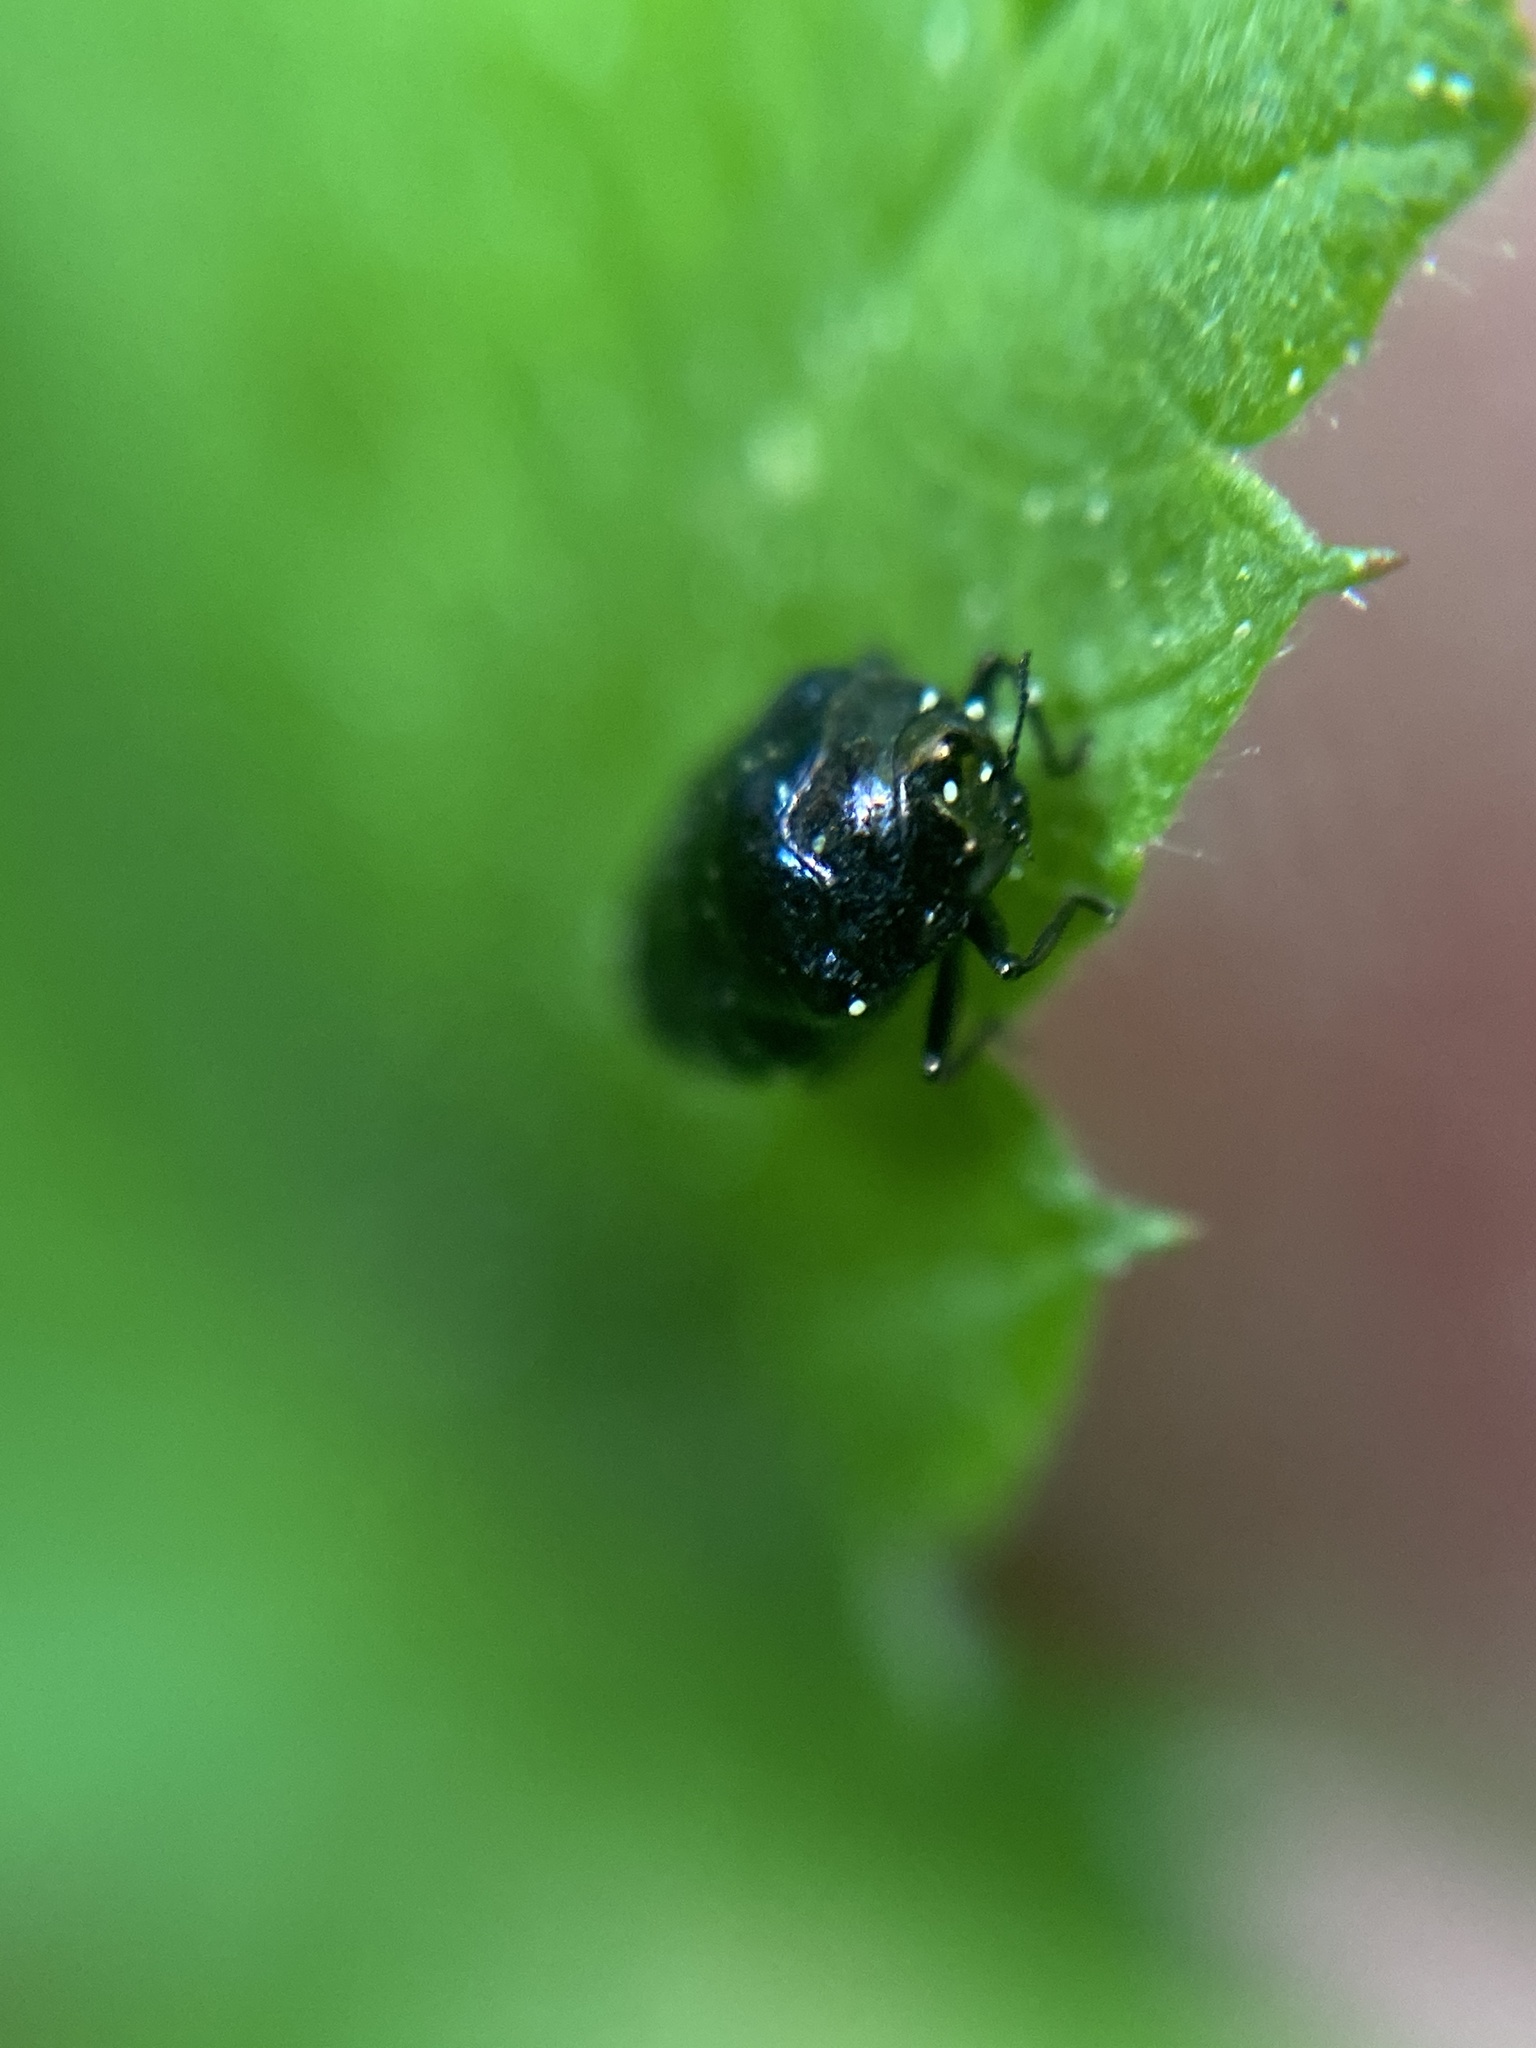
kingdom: Animalia
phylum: Arthropoda
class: Insecta
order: Coleoptera
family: Buprestidae
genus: Trachys
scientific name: Trachys minutus
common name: Metallic wood-boring beetle
